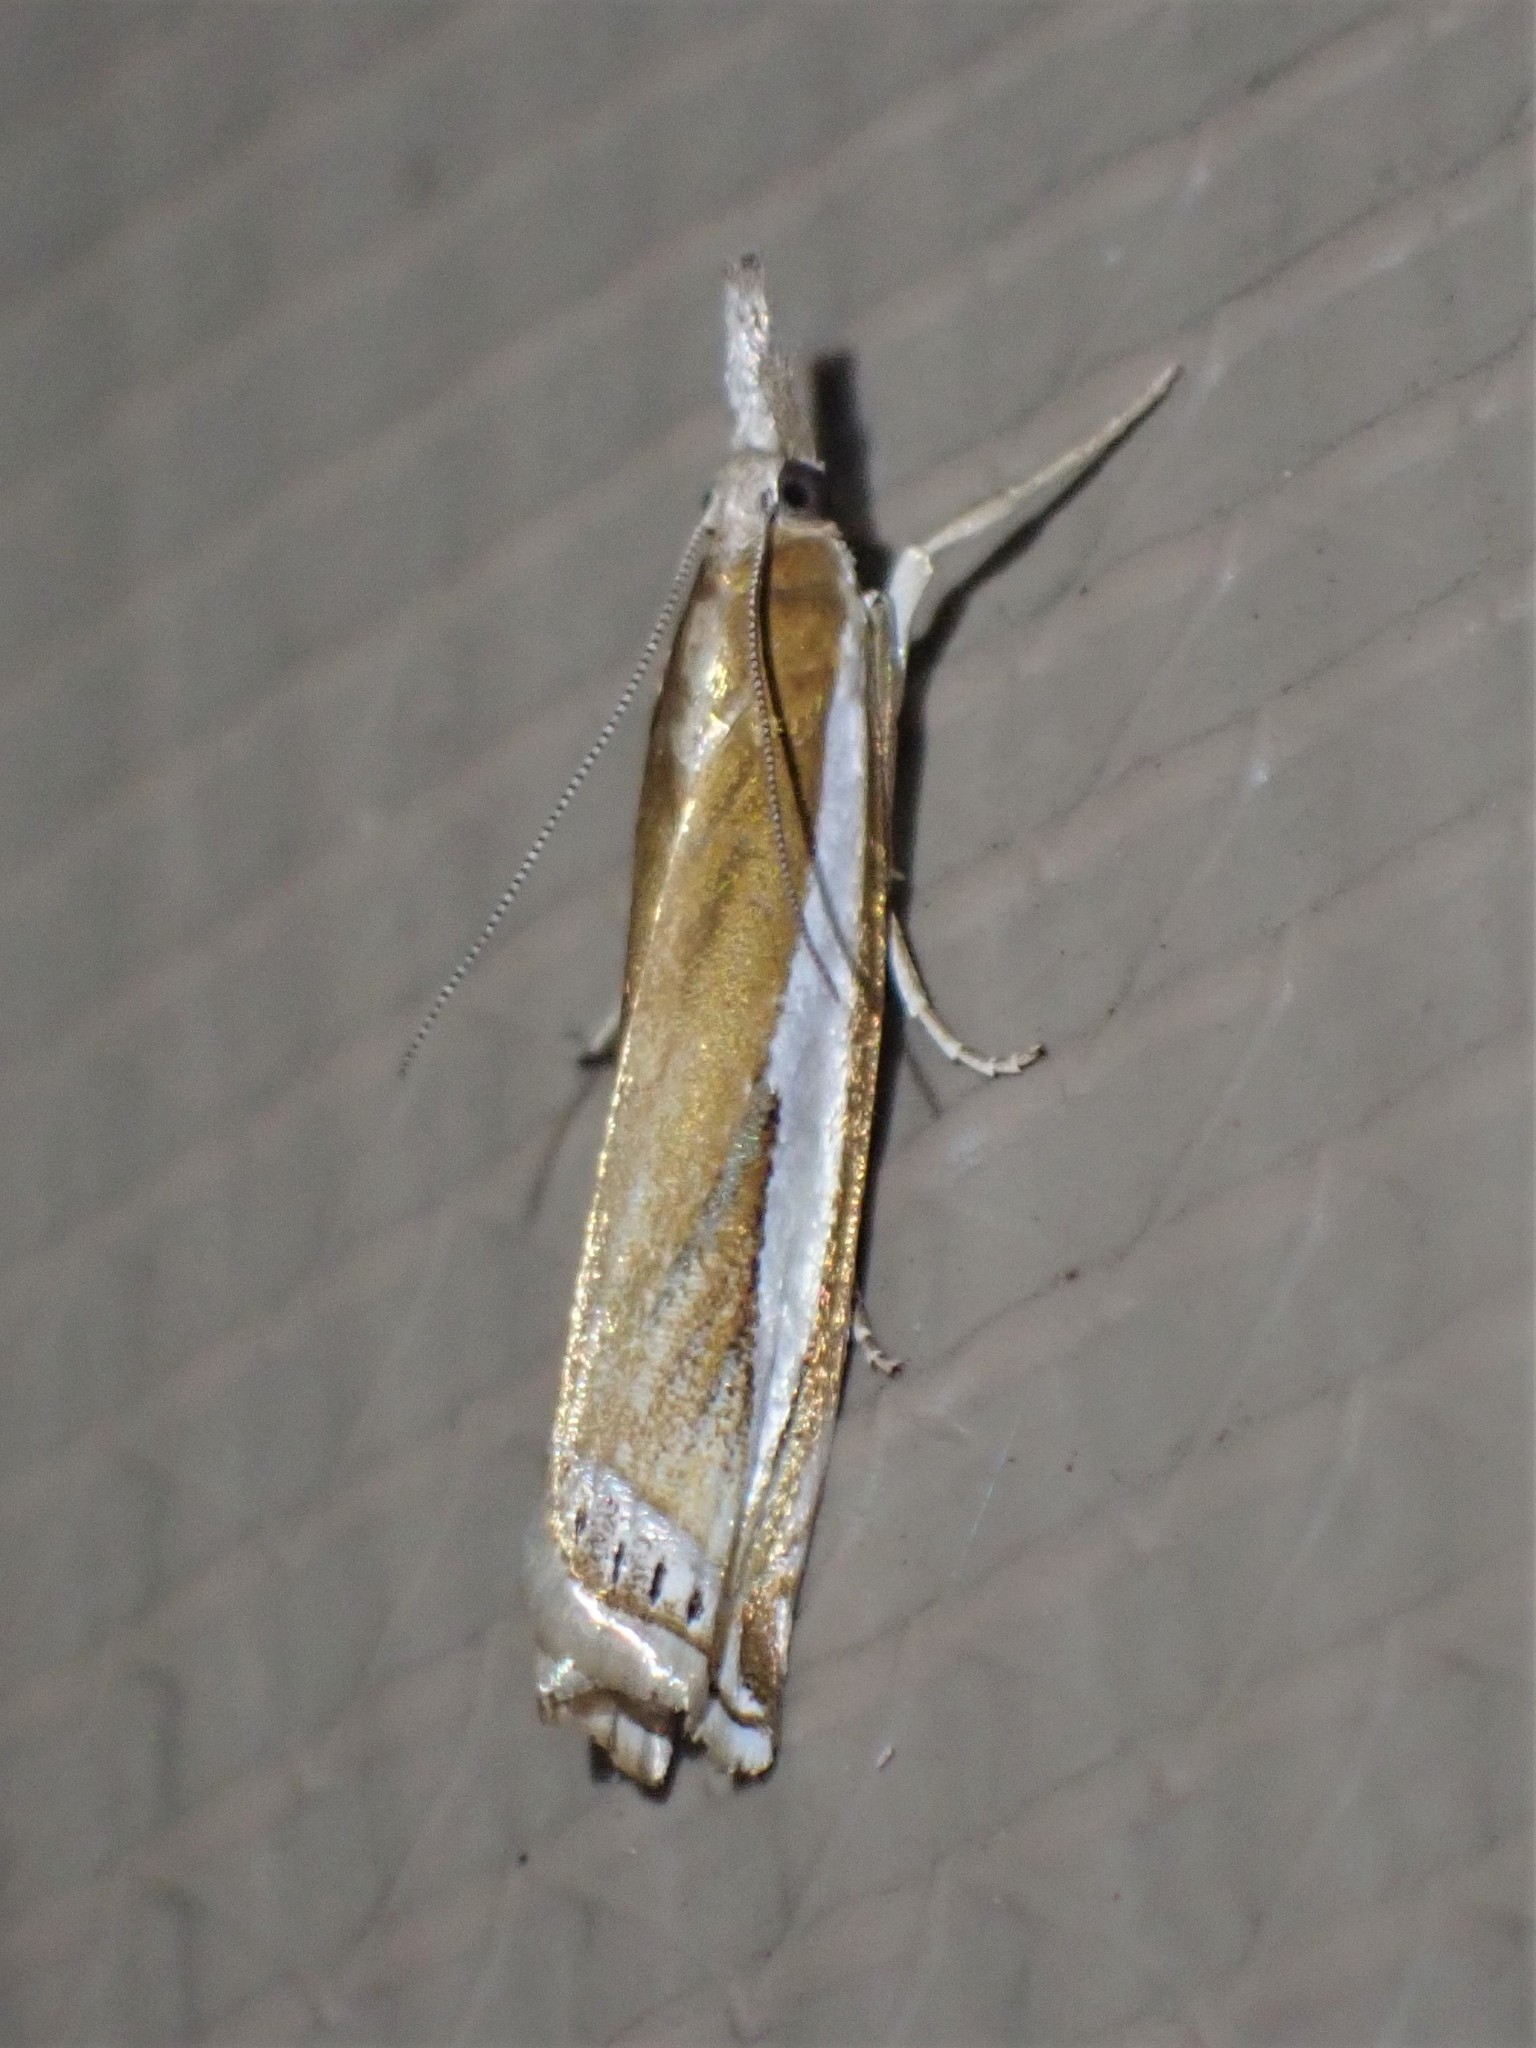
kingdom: Animalia
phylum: Arthropoda
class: Insecta
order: Lepidoptera
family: Crambidae
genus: Crambus
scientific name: Crambus praefectellus
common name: Common grass-veneer
